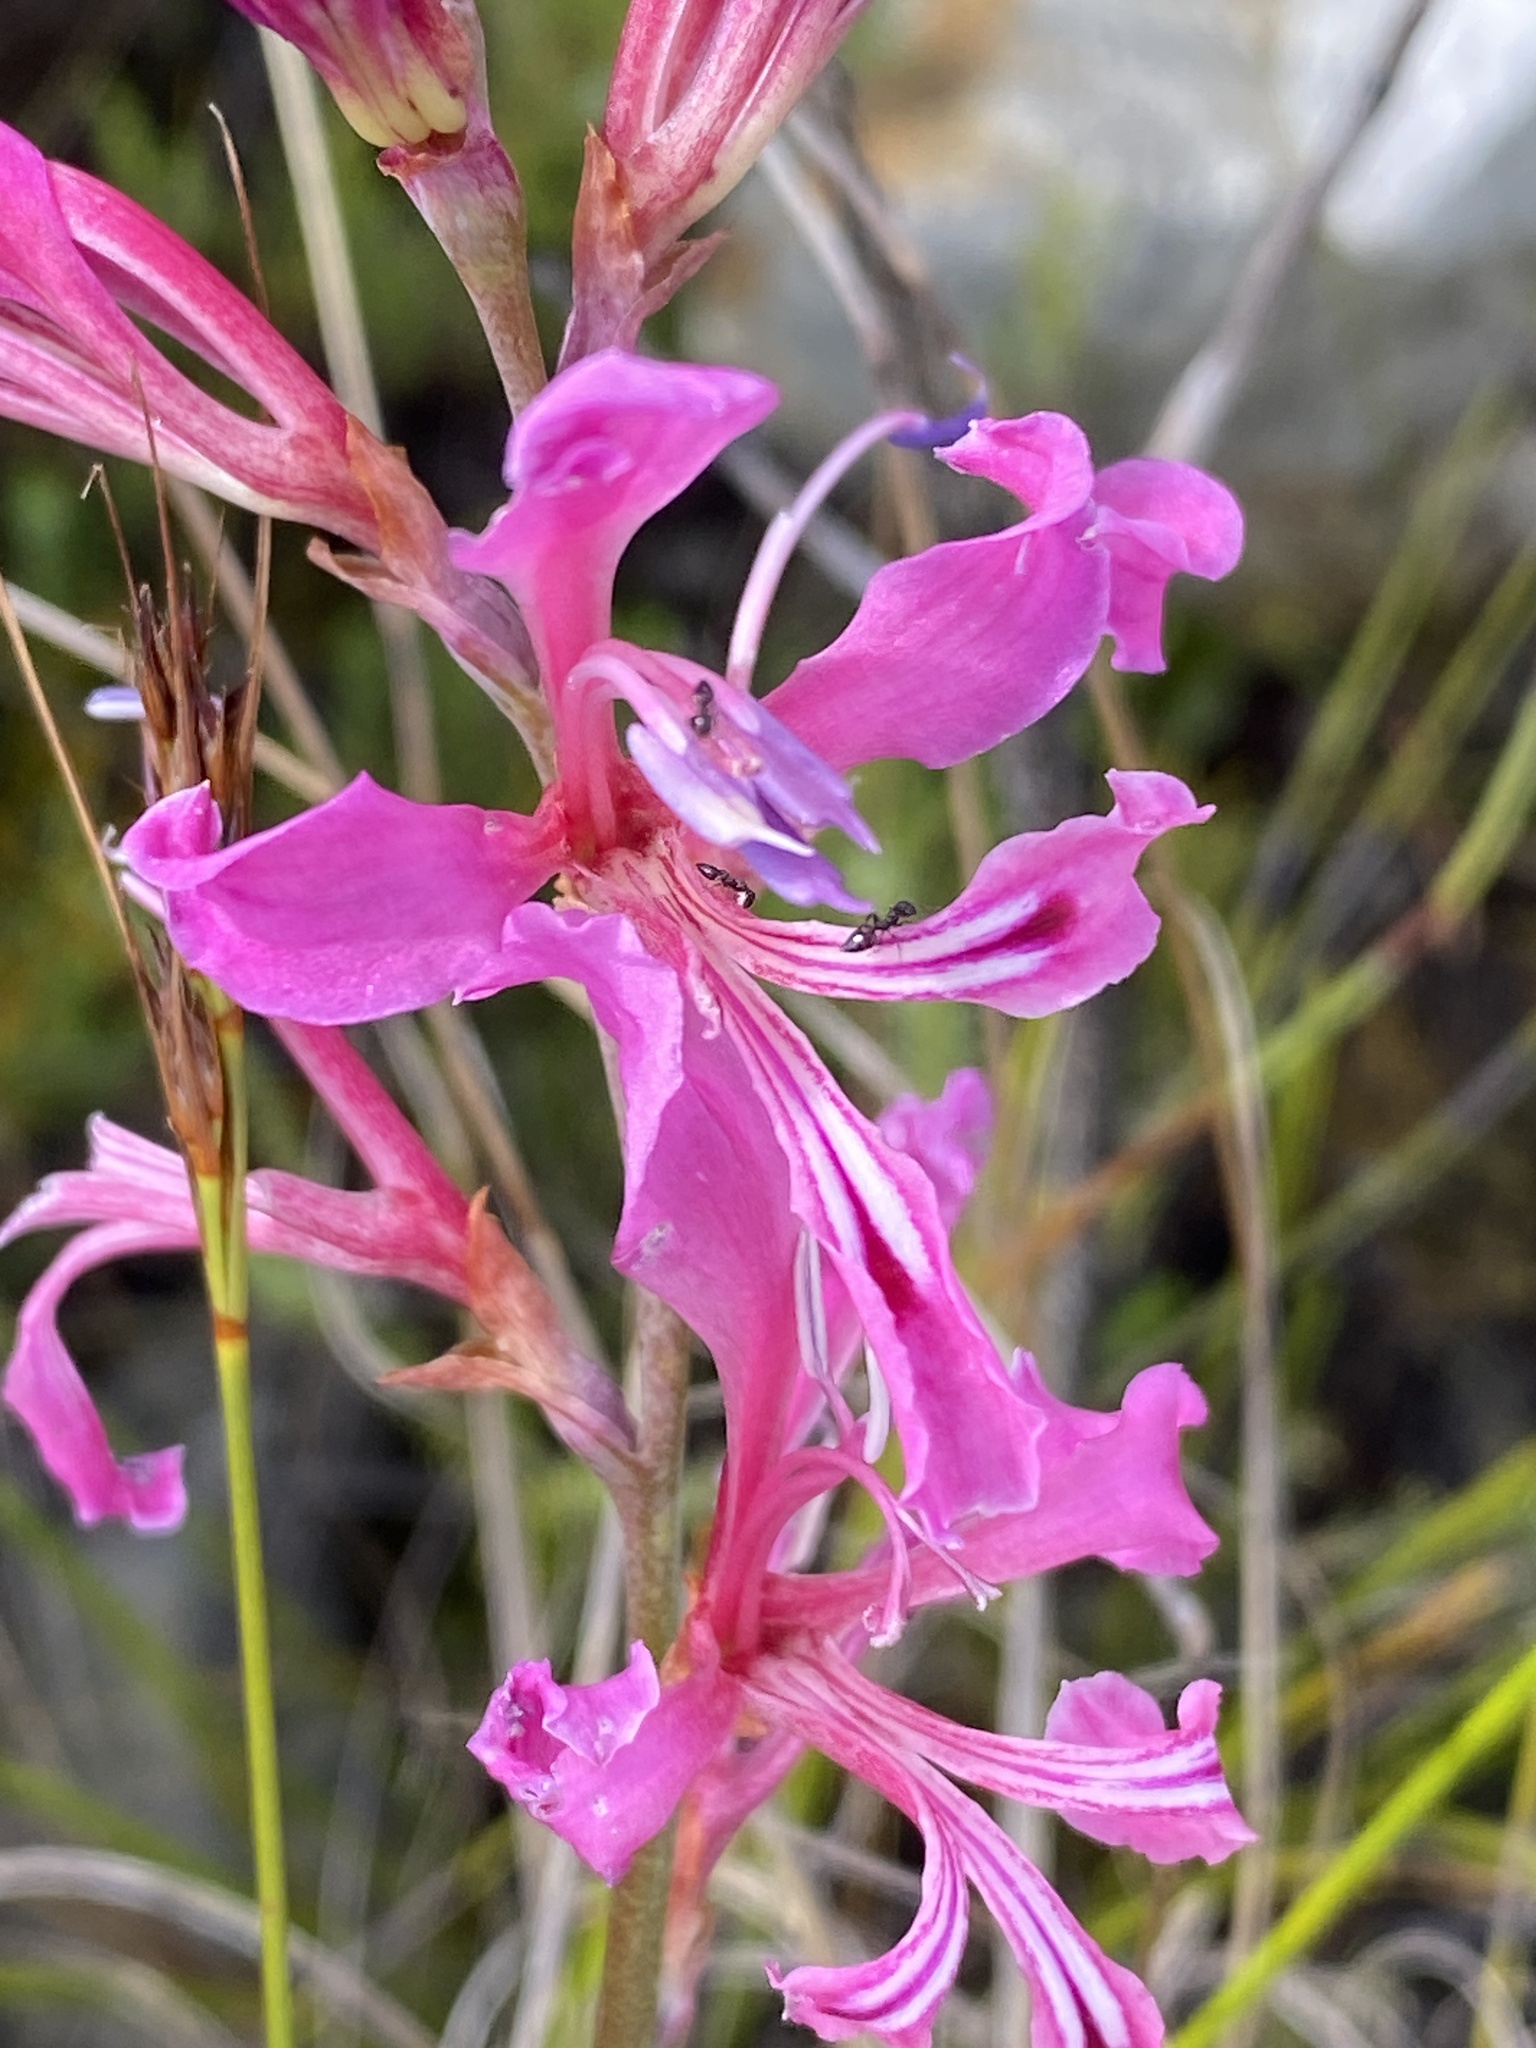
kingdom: Plantae
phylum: Tracheophyta
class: Liliopsida
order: Asparagales
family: Iridaceae
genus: Tritoniopsis
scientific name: Tritoniopsis lata
